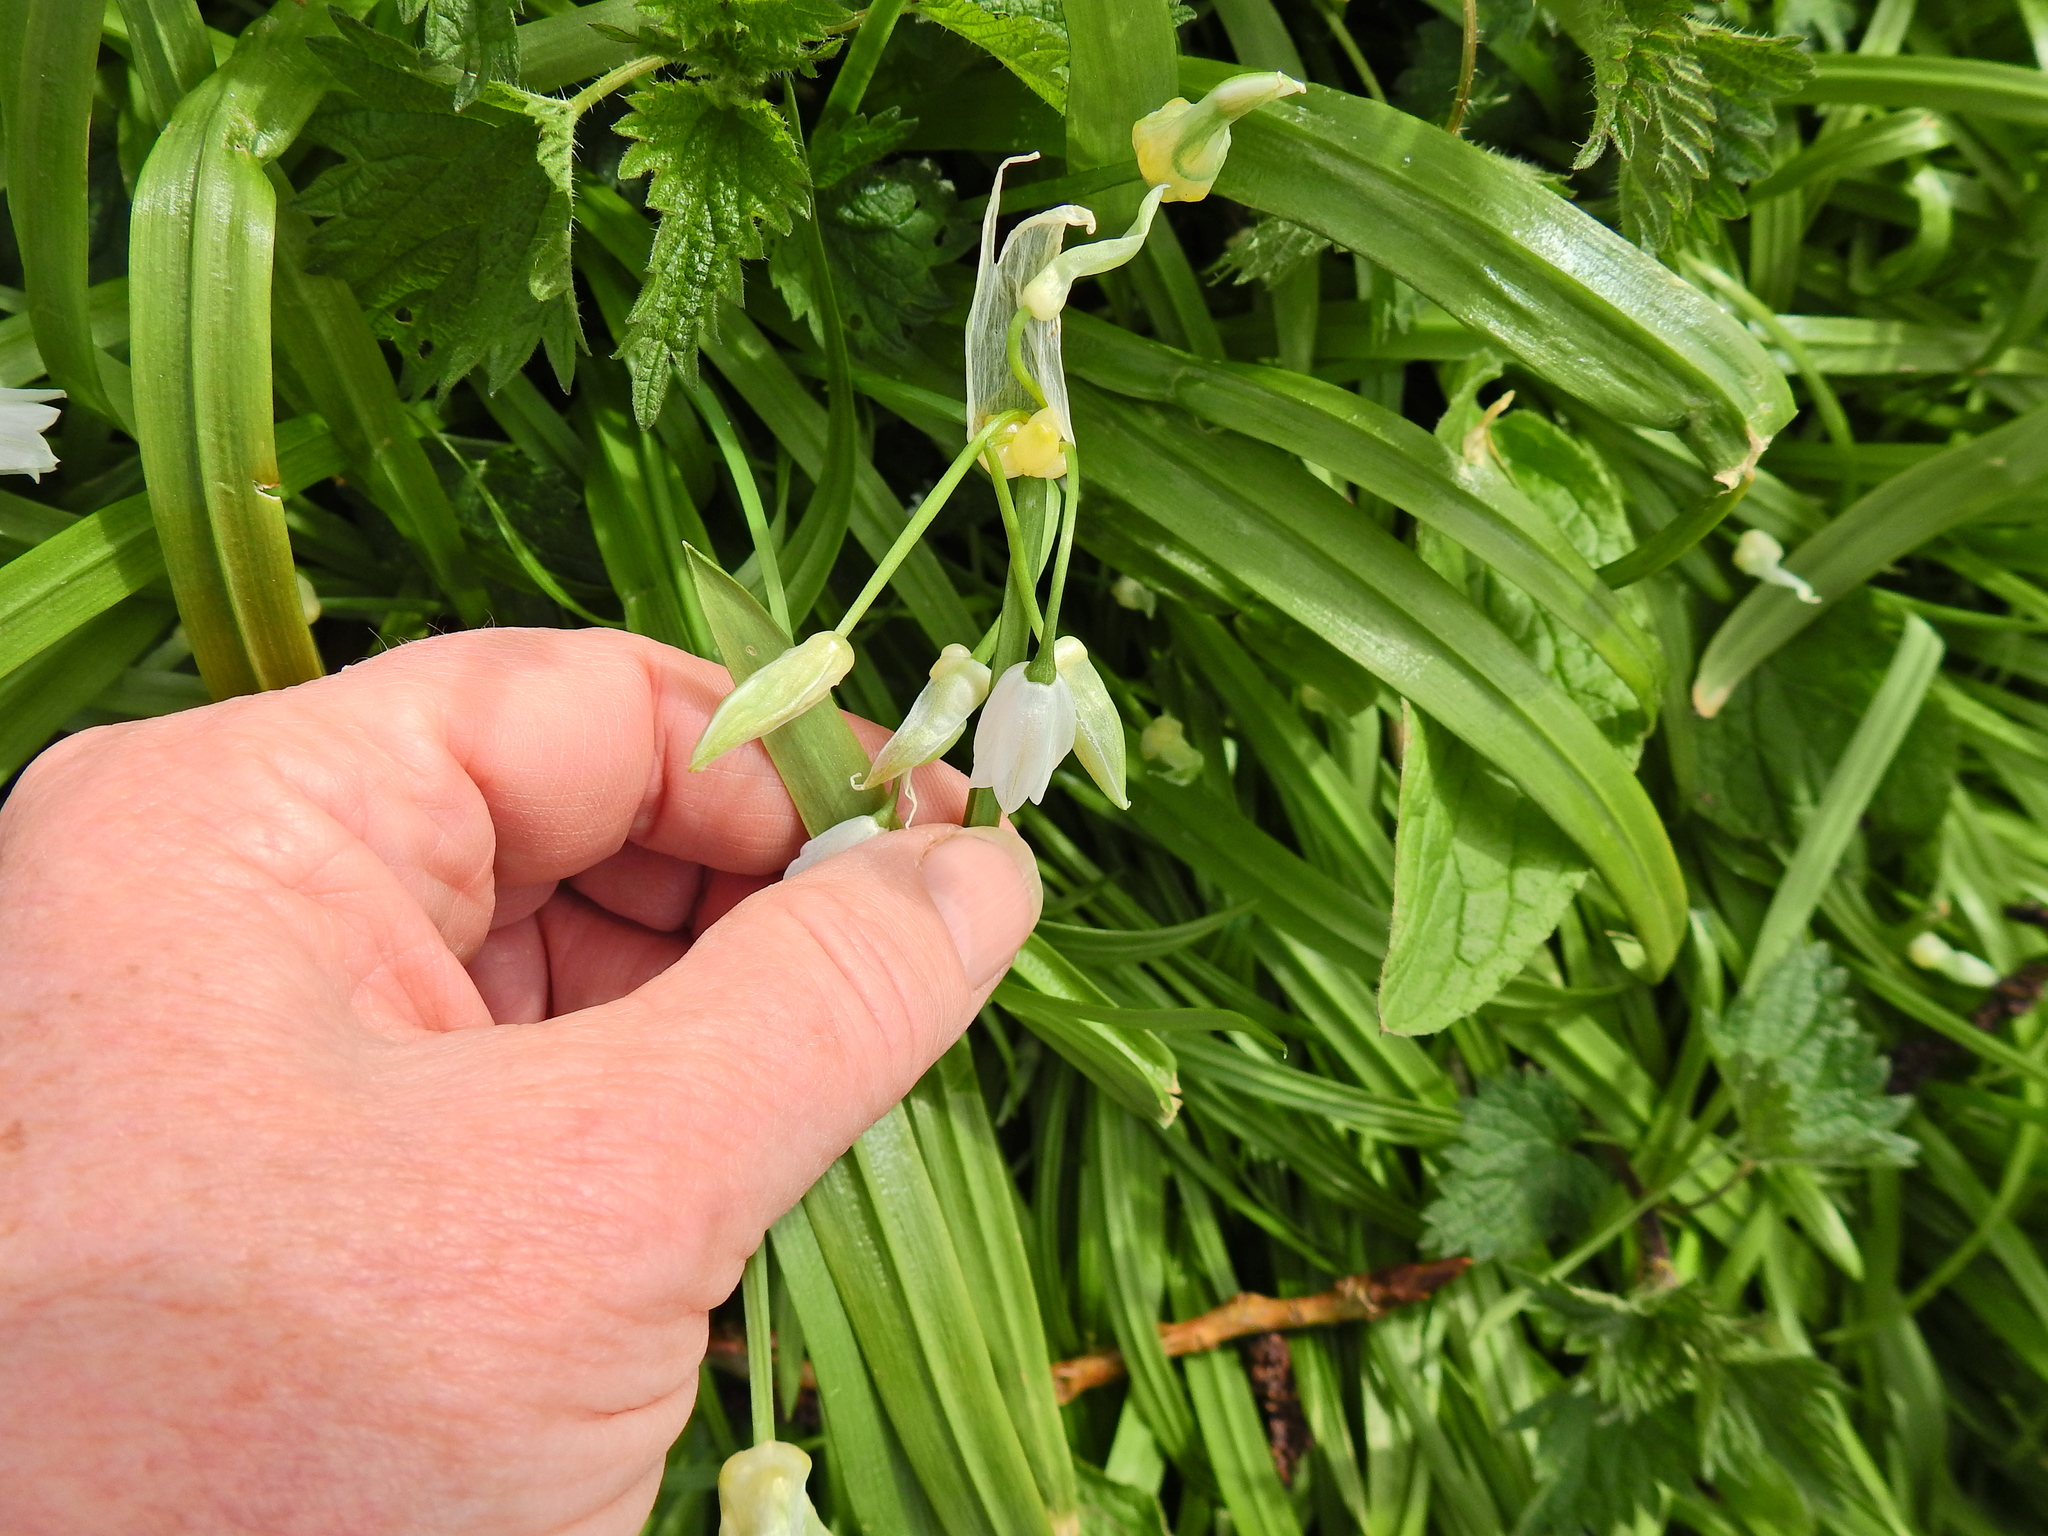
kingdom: Plantae
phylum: Tracheophyta
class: Liliopsida
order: Asparagales
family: Amaryllidaceae
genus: Allium
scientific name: Allium paradoxum
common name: Few-flowered garlic
